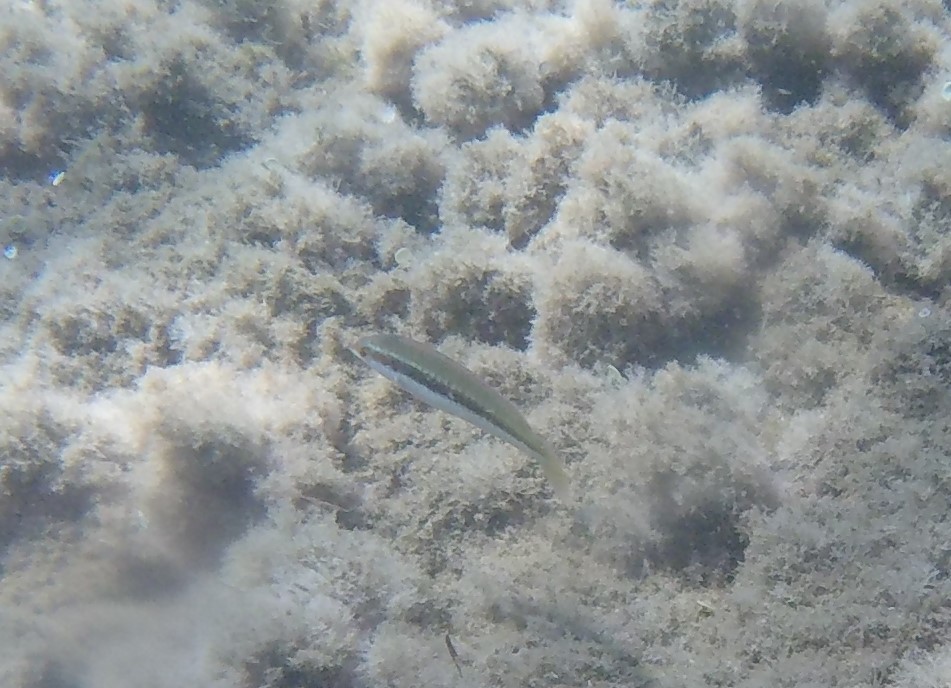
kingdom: Animalia
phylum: Chordata
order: Perciformes
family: Labridae
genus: Coris
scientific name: Coris julis
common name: Rainbow wrasse
